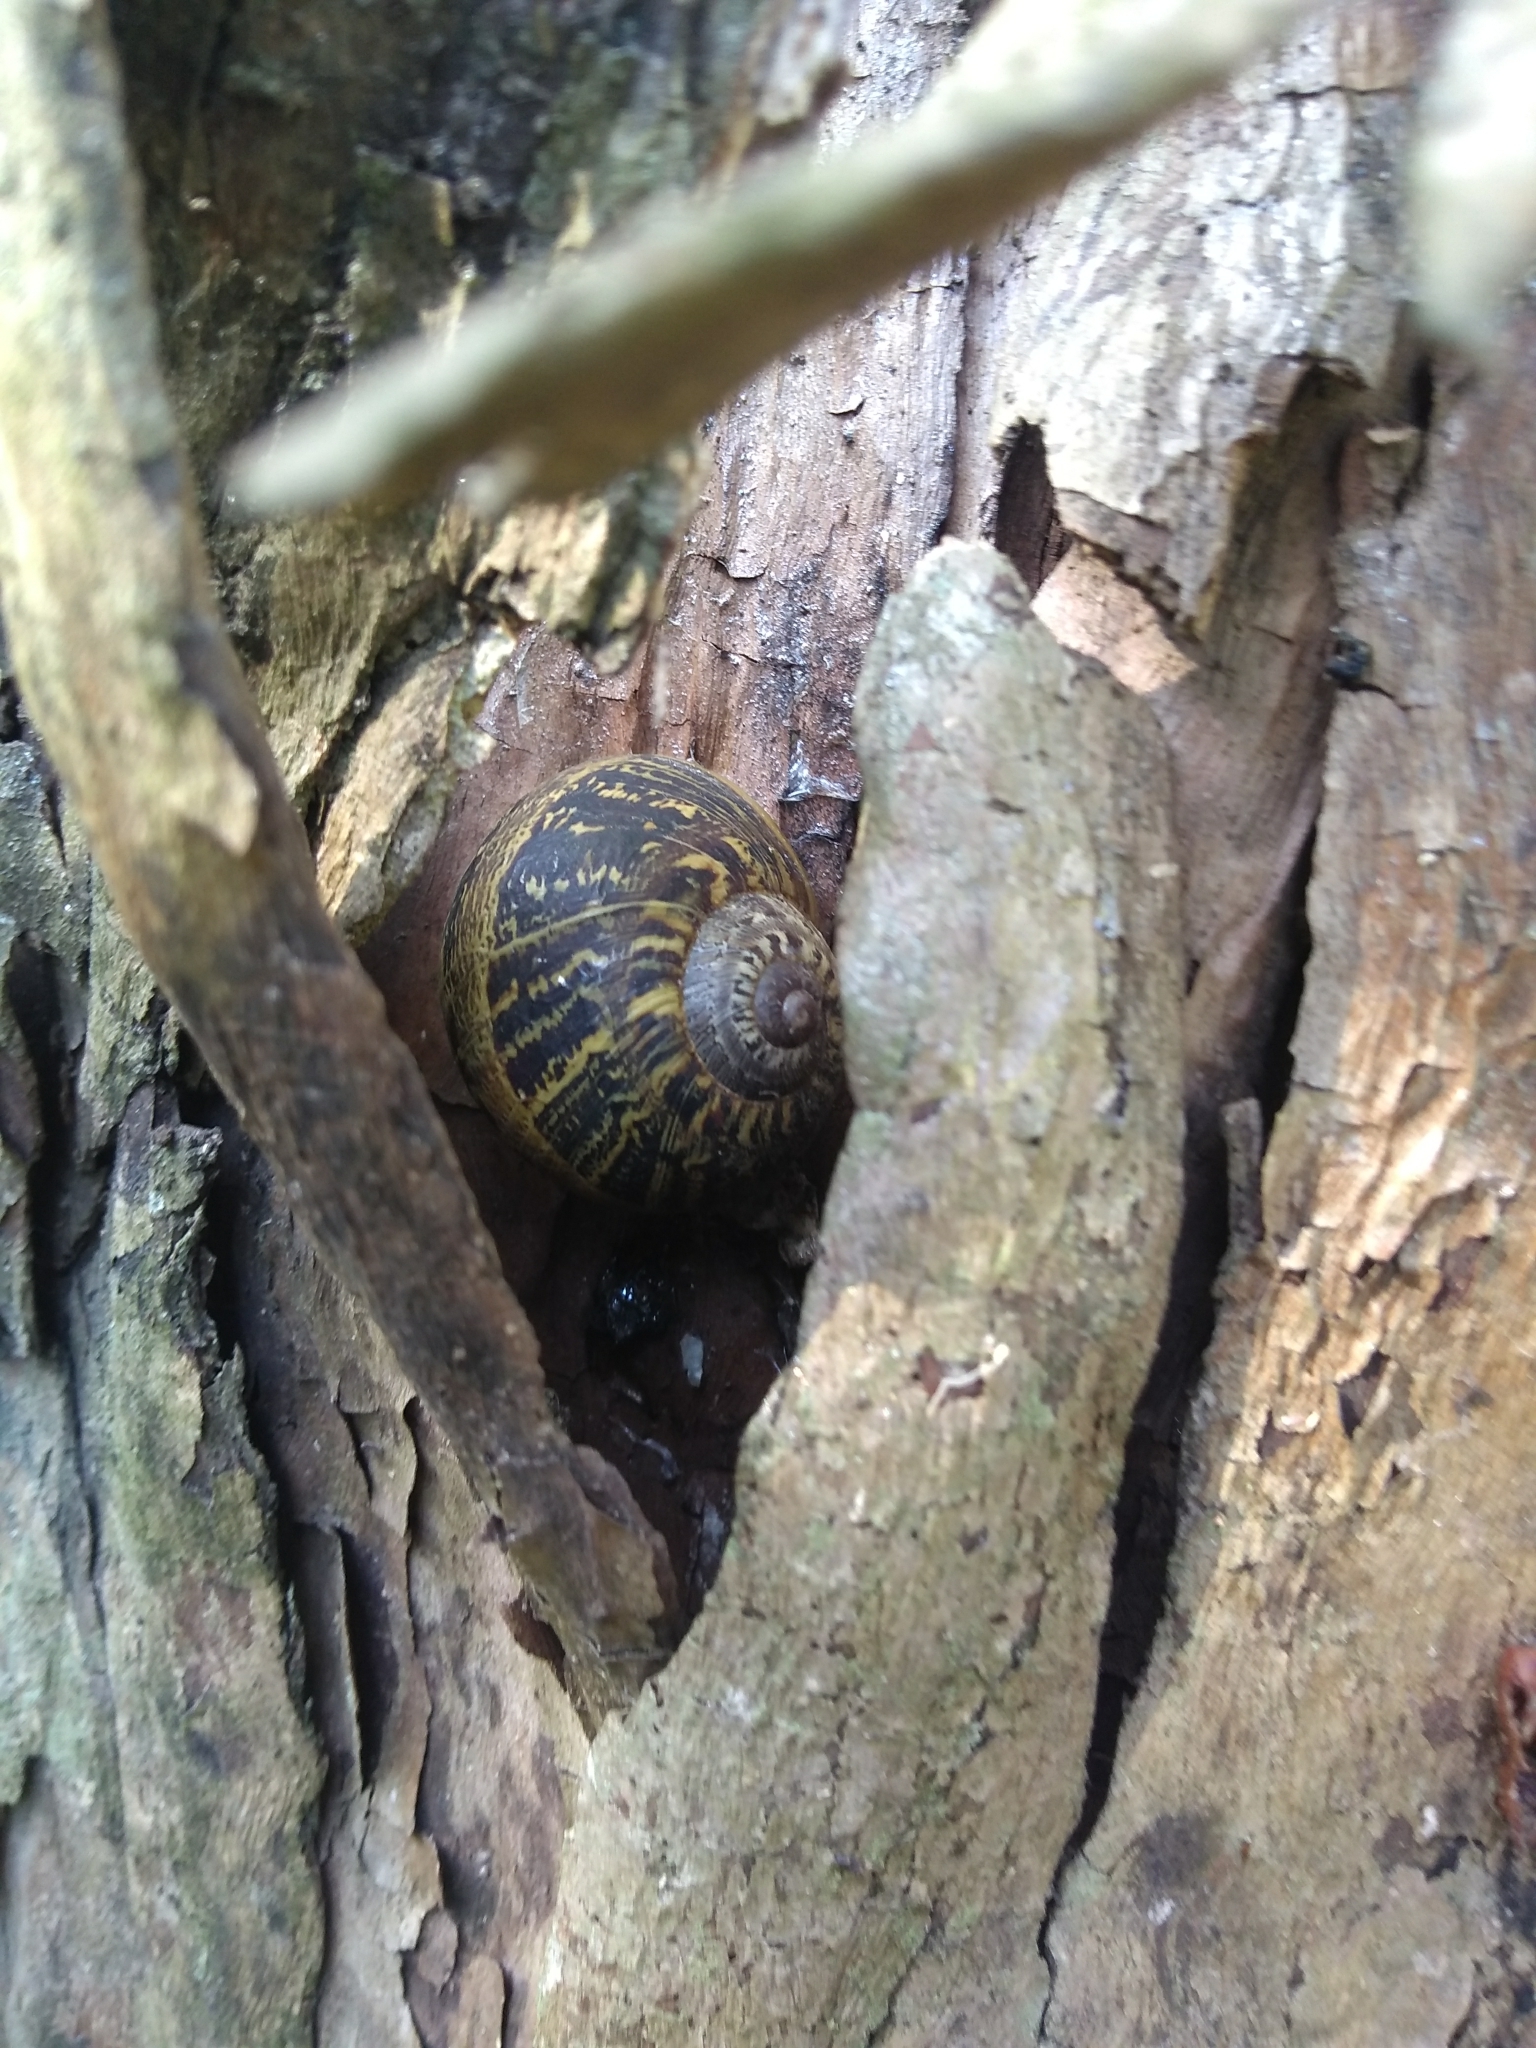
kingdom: Animalia
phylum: Mollusca
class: Gastropoda
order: Stylommatophora
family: Helicidae
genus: Cornu
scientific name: Cornu aspersum
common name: Brown garden snail
